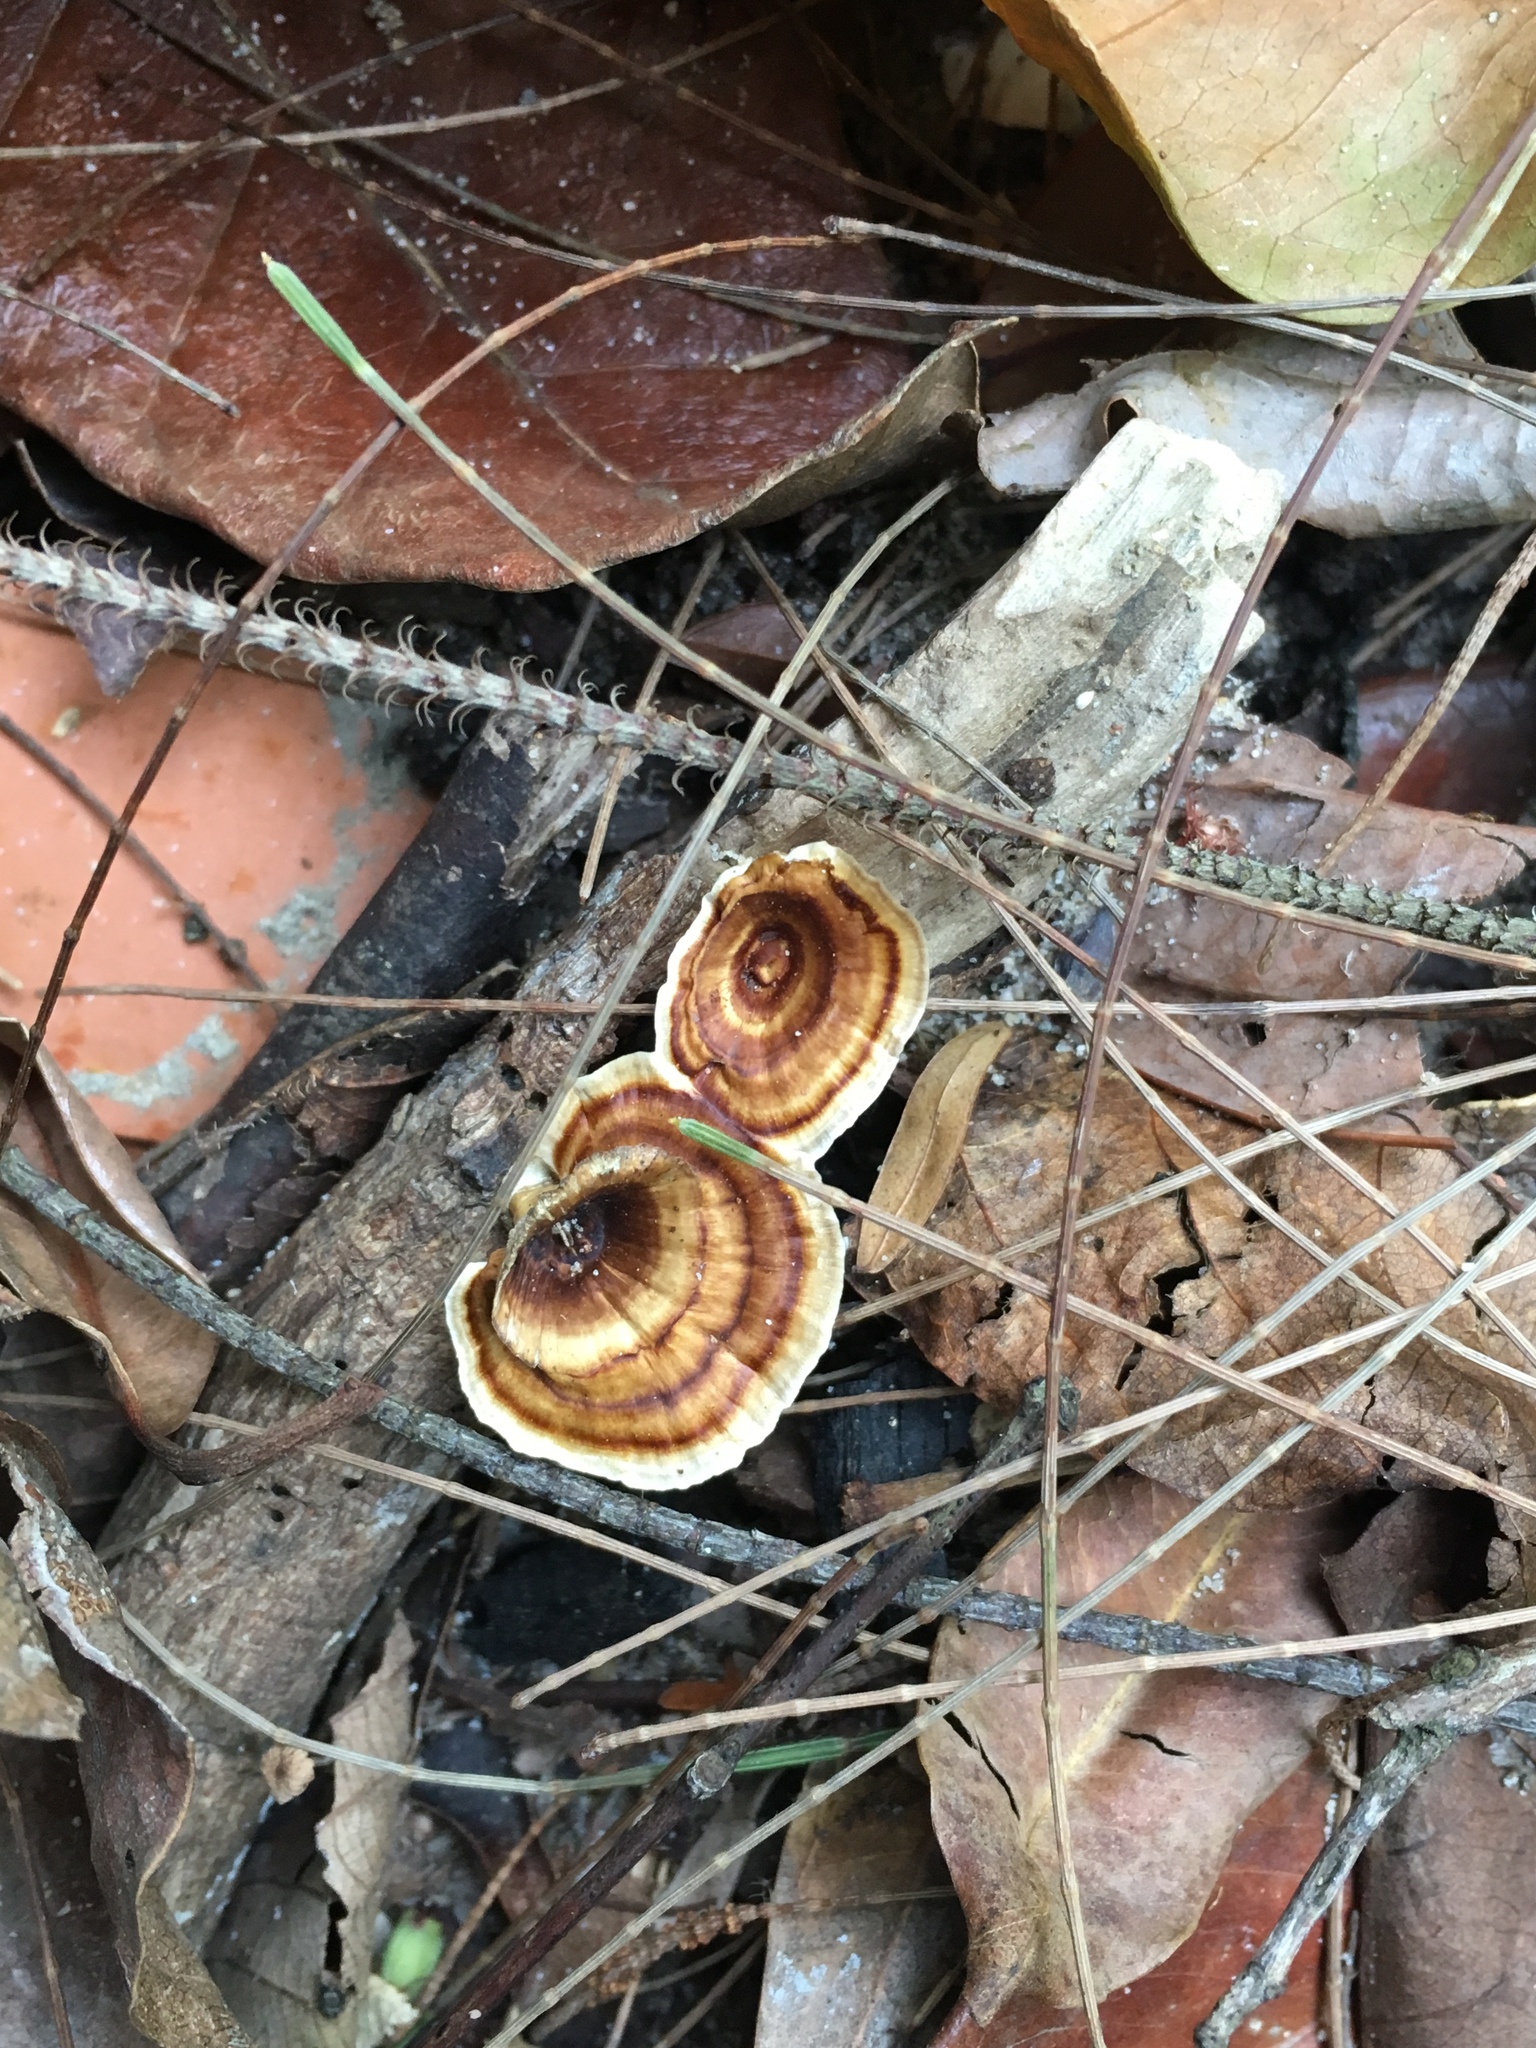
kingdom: Fungi
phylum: Basidiomycota
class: Agaricomycetes
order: Polyporales
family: Polyporaceae
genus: Microporus
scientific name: Microporus xanthopus
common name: Yellow-stemmed micropore
